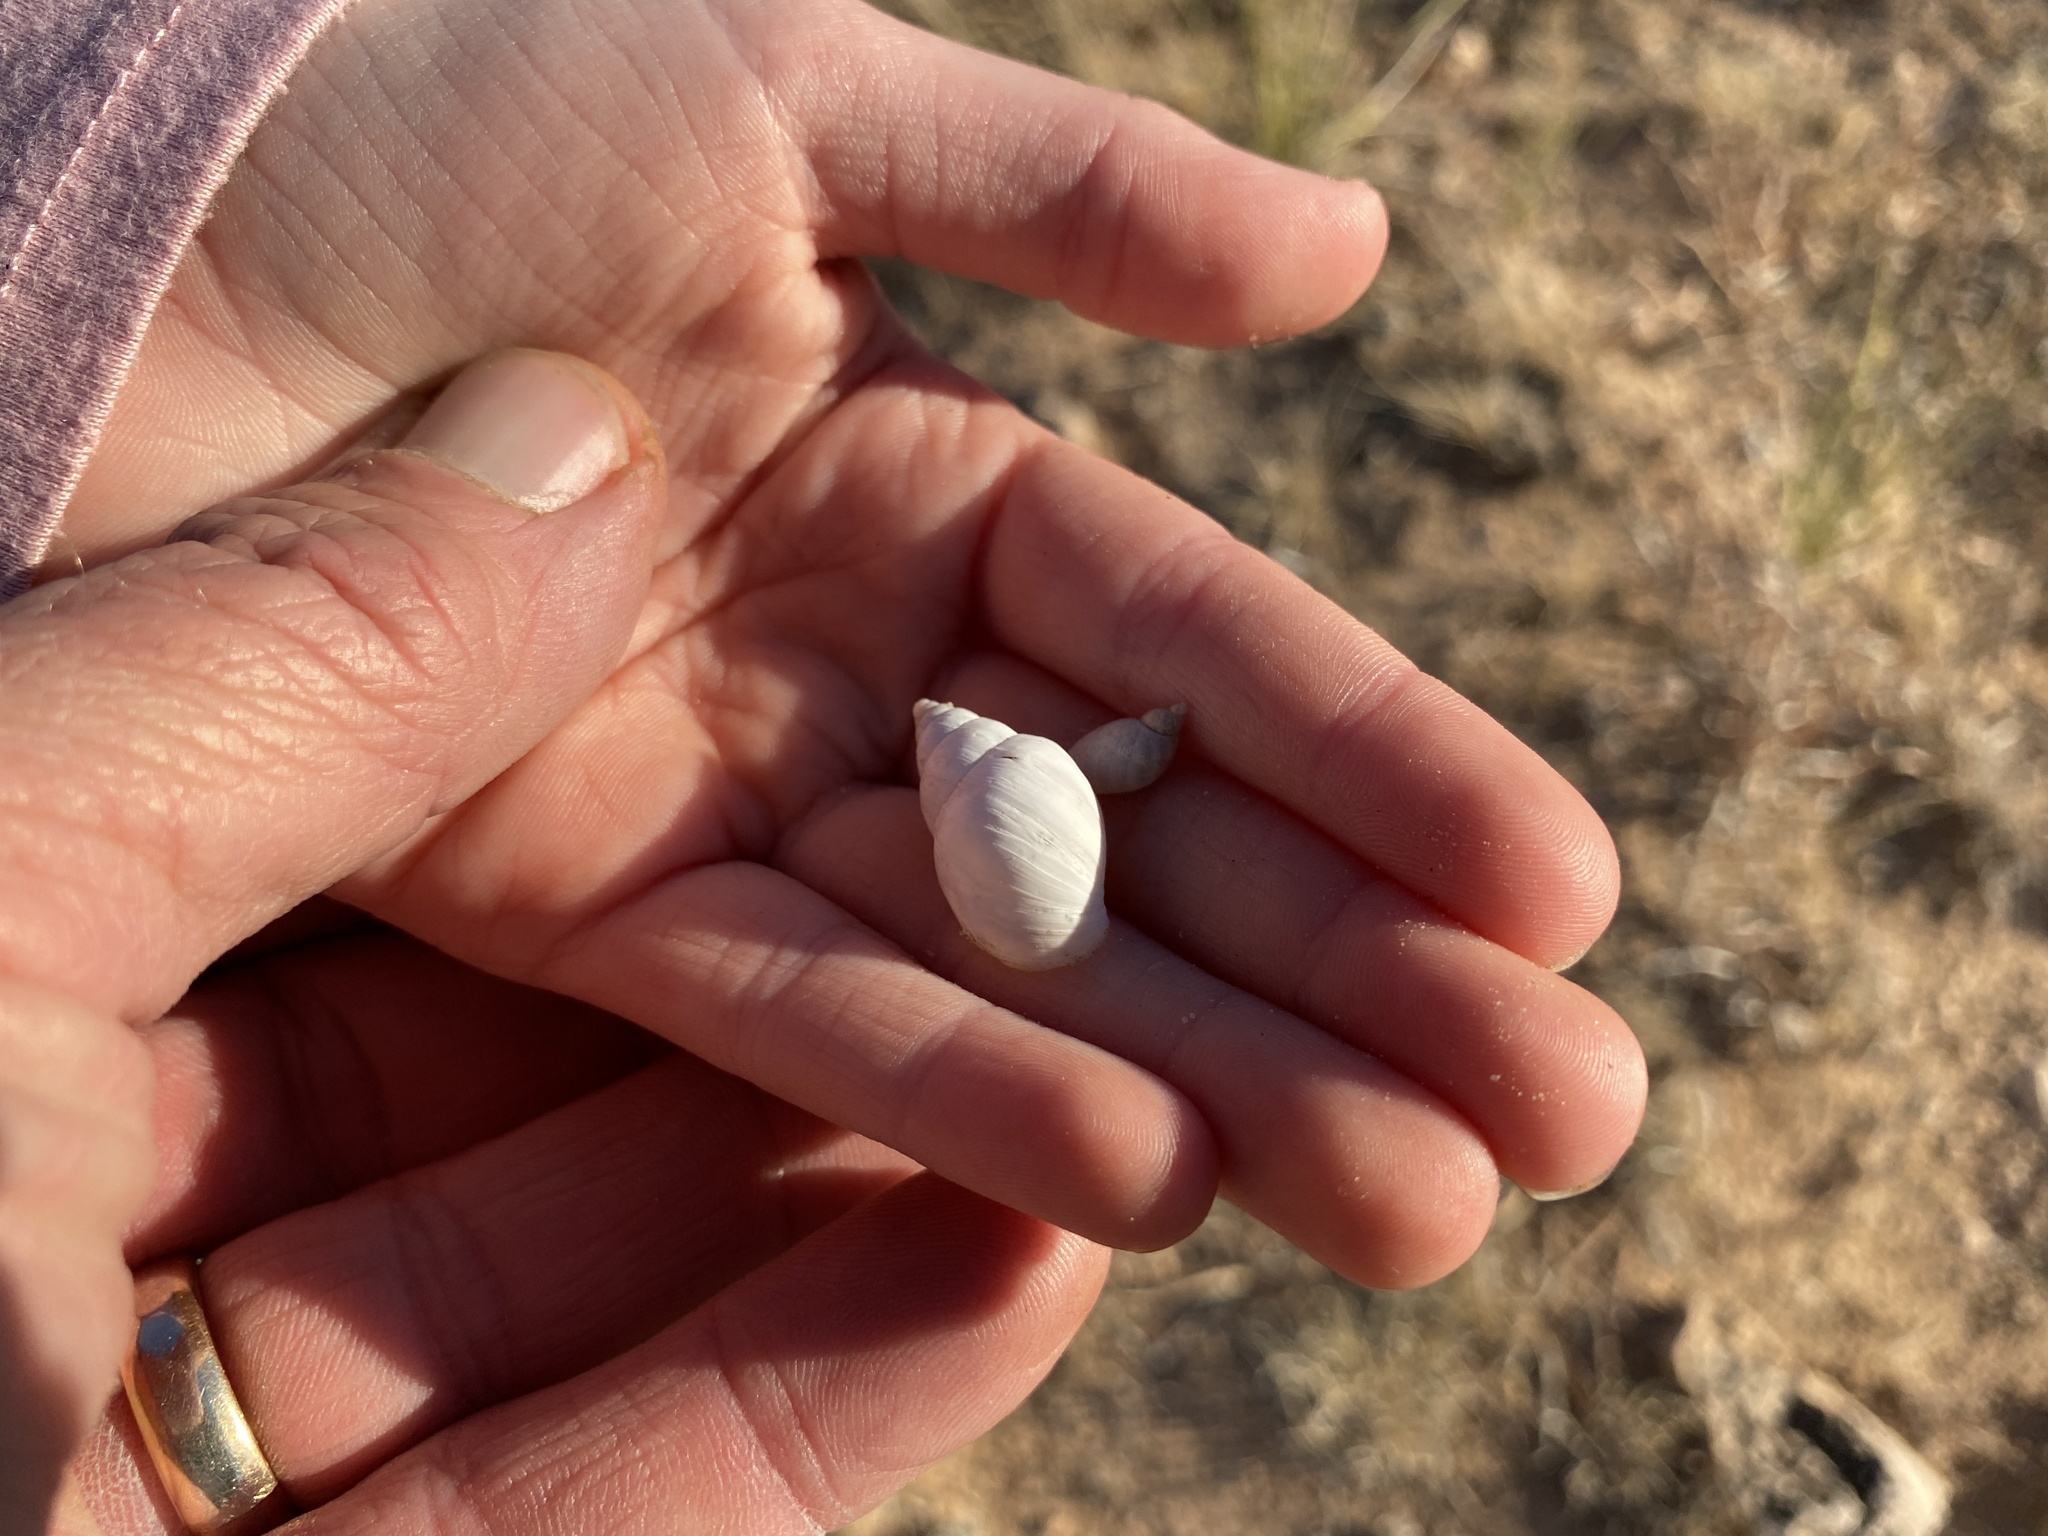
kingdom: Animalia
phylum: Mollusca
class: Gastropoda
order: Stylommatophora
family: Bulimulidae
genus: Rabdotus
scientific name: Rabdotus dealbatus
